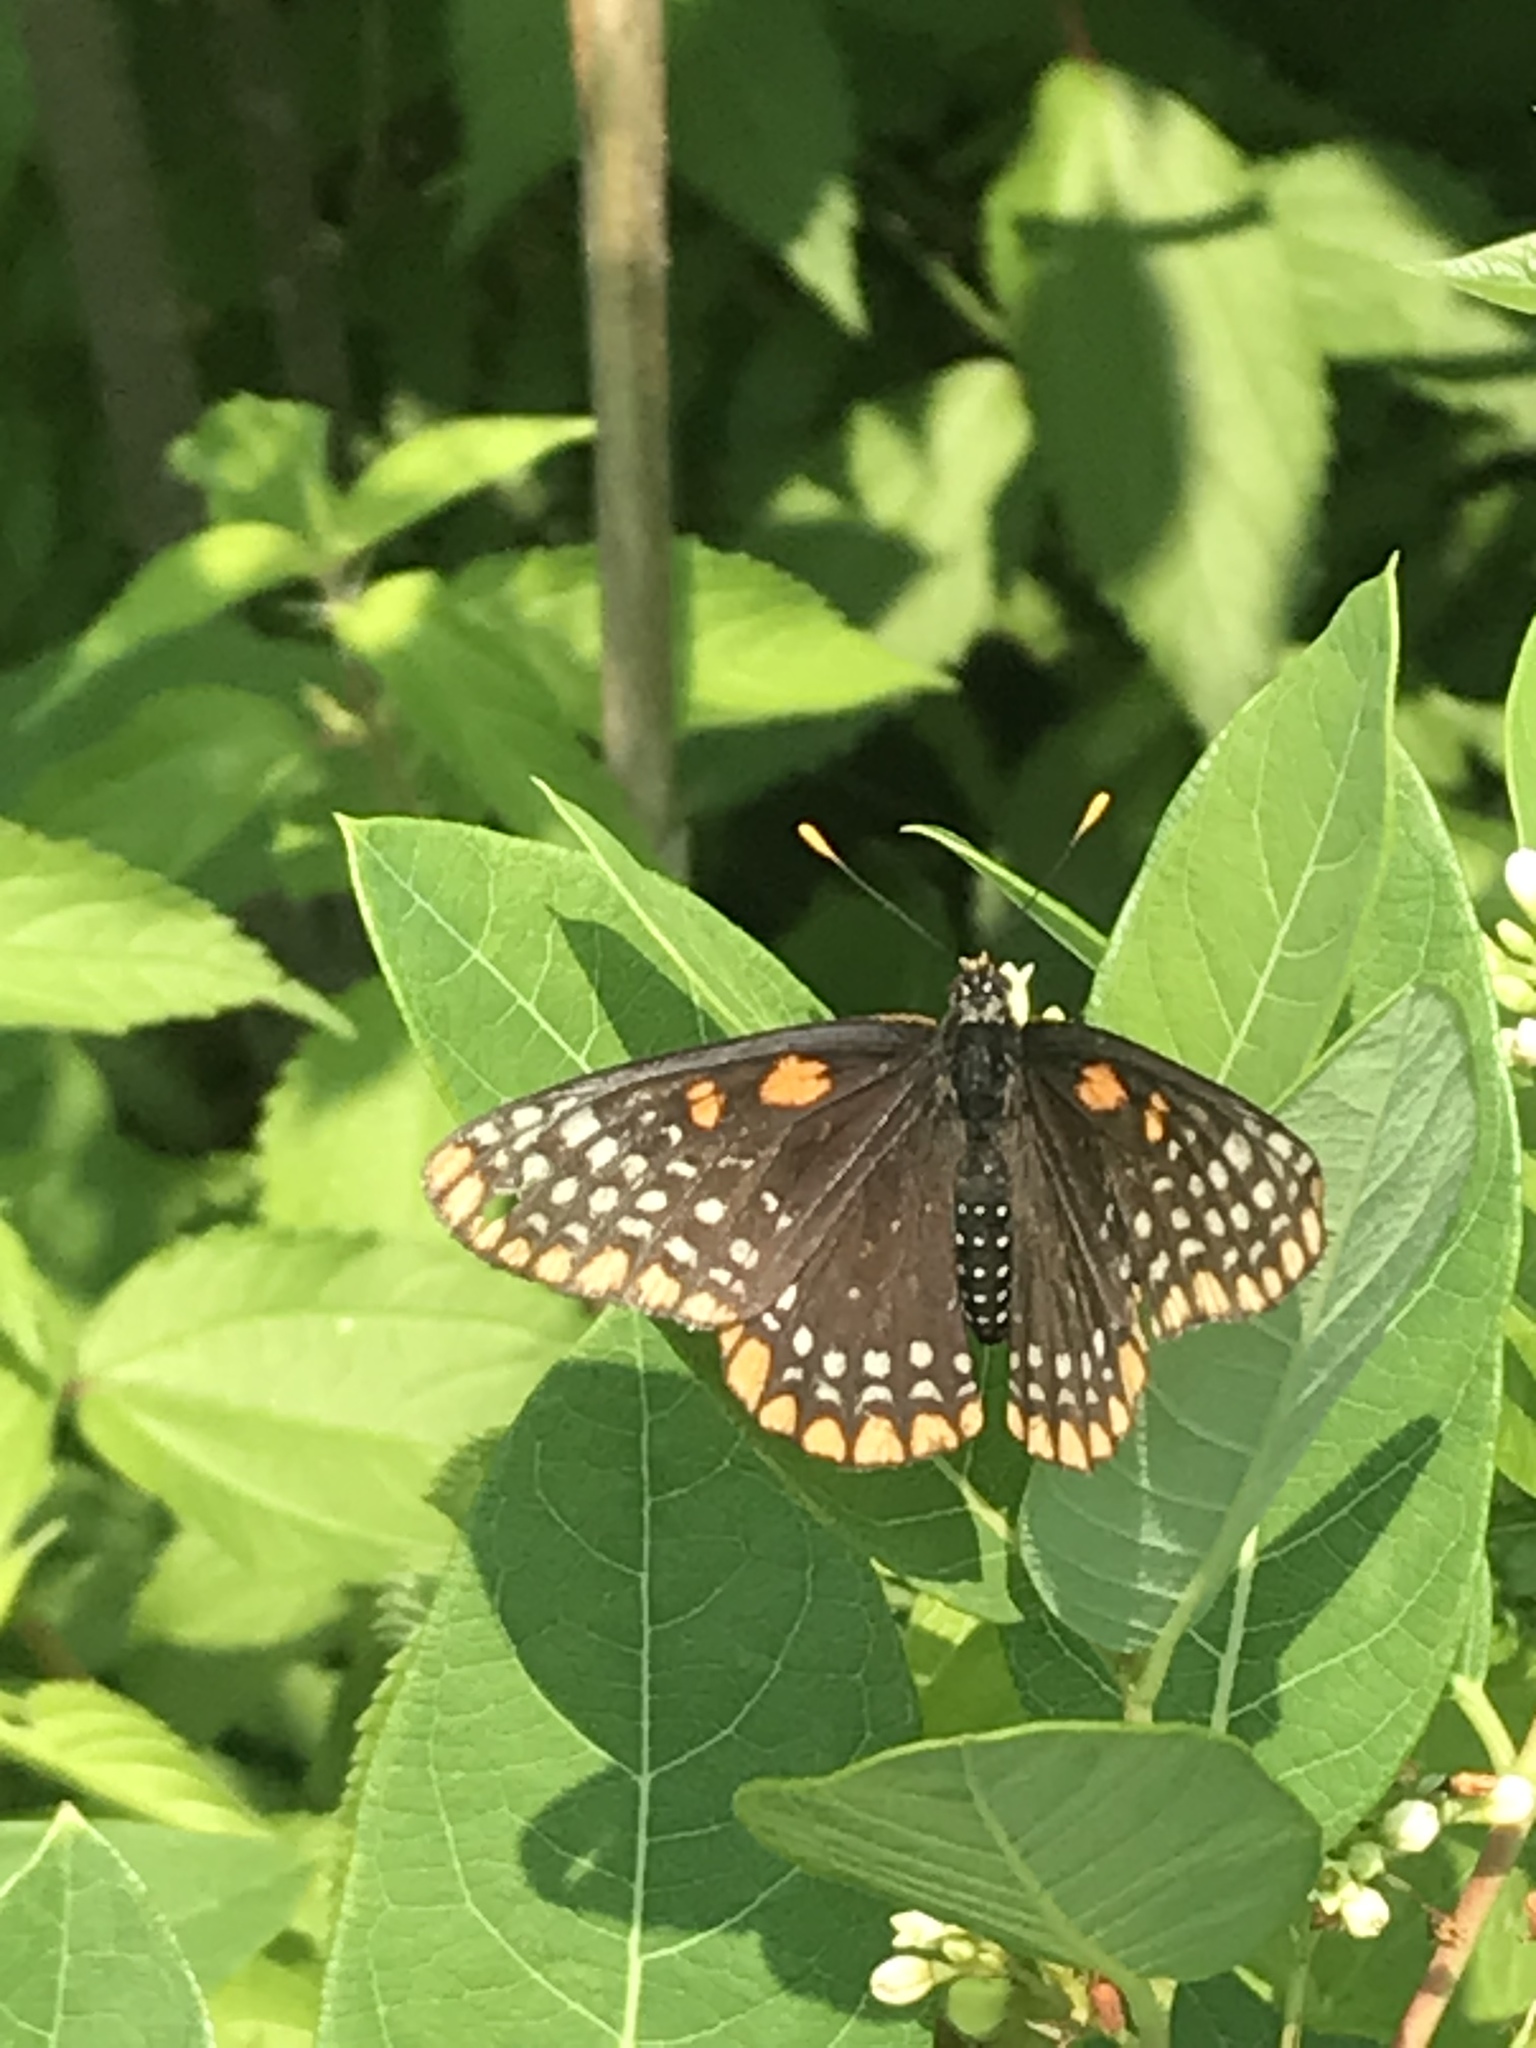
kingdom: Animalia
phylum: Arthropoda
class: Insecta
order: Lepidoptera
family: Nymphalidae
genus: Euphydryas
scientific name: Euphydryas phaeton
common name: Baltimore checkerspot
